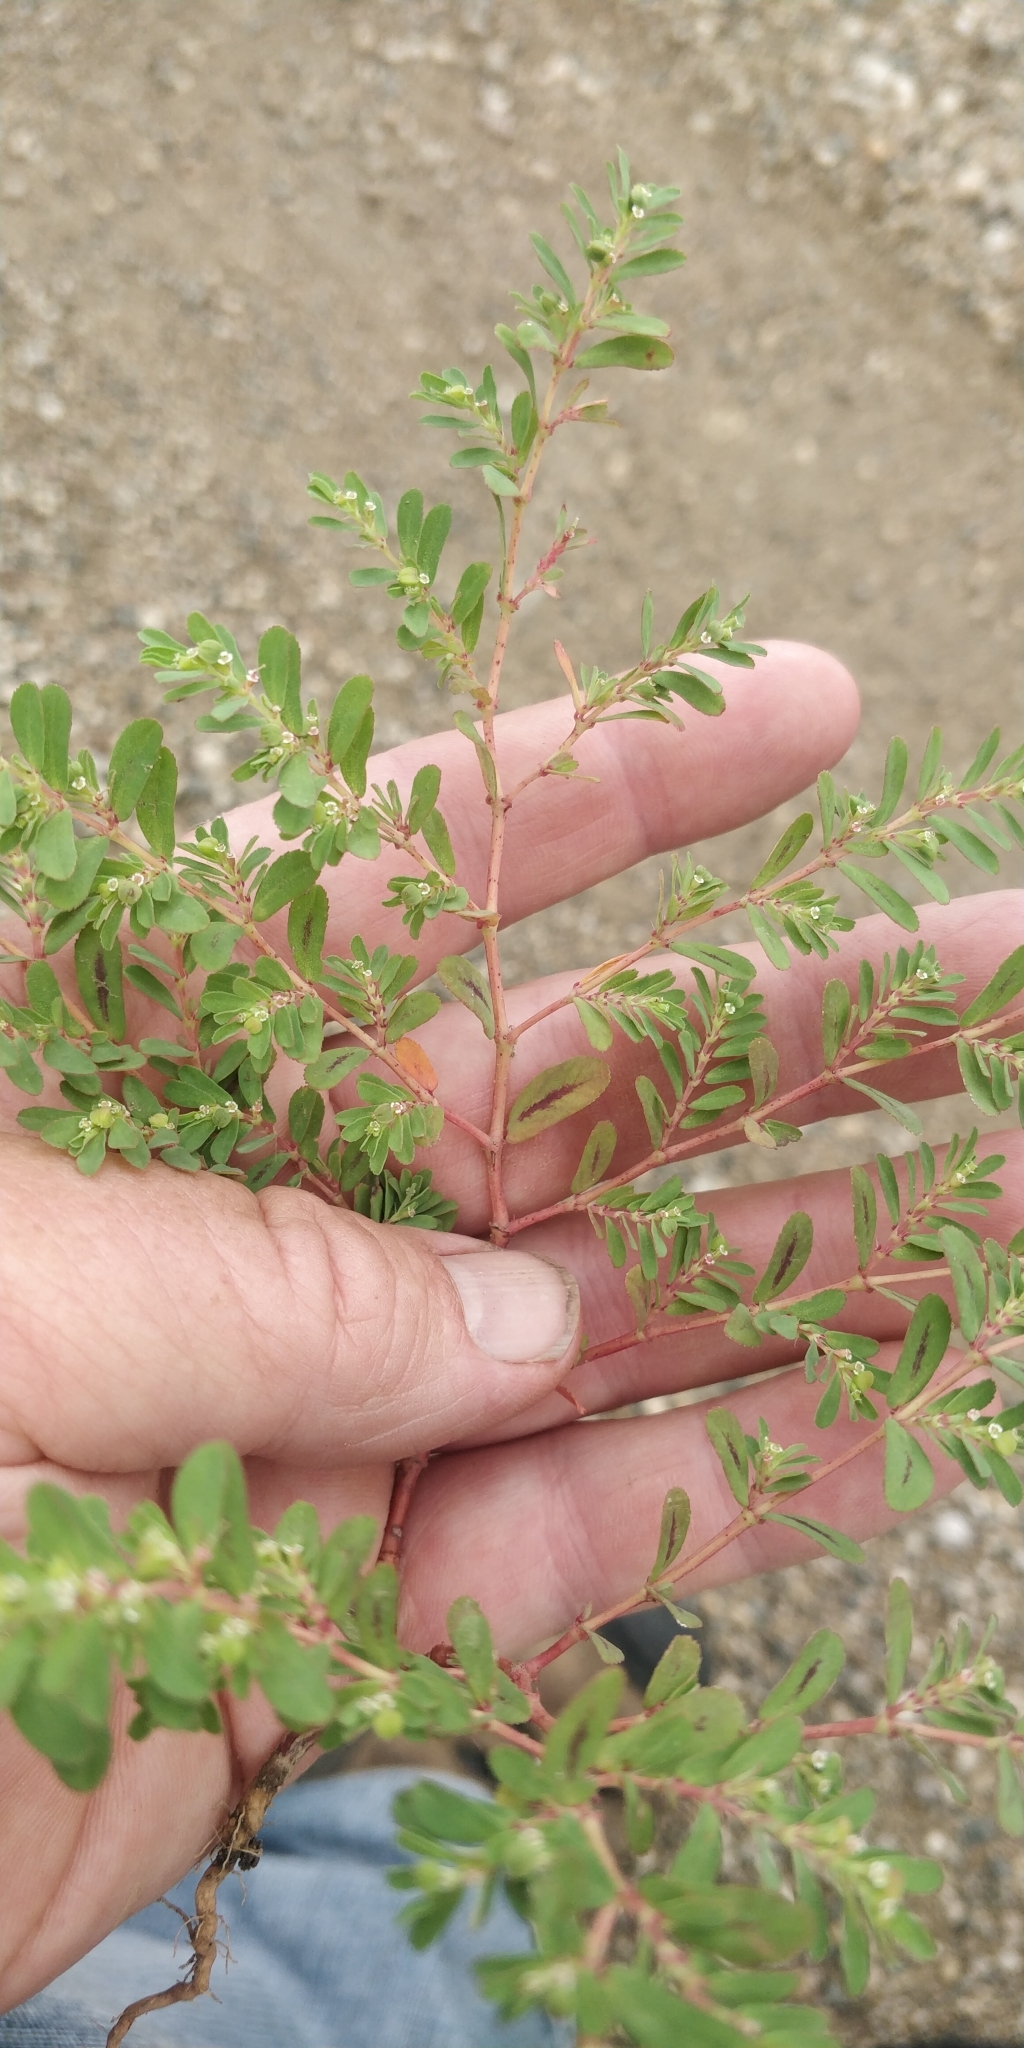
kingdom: Plantae
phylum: Tracheophyta
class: Magnoliopsida
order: Malpighiales
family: Euphorbiaceae
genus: Euphorbia
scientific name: Euphorbia serpillifolia
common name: Thyme-leaf spurge
